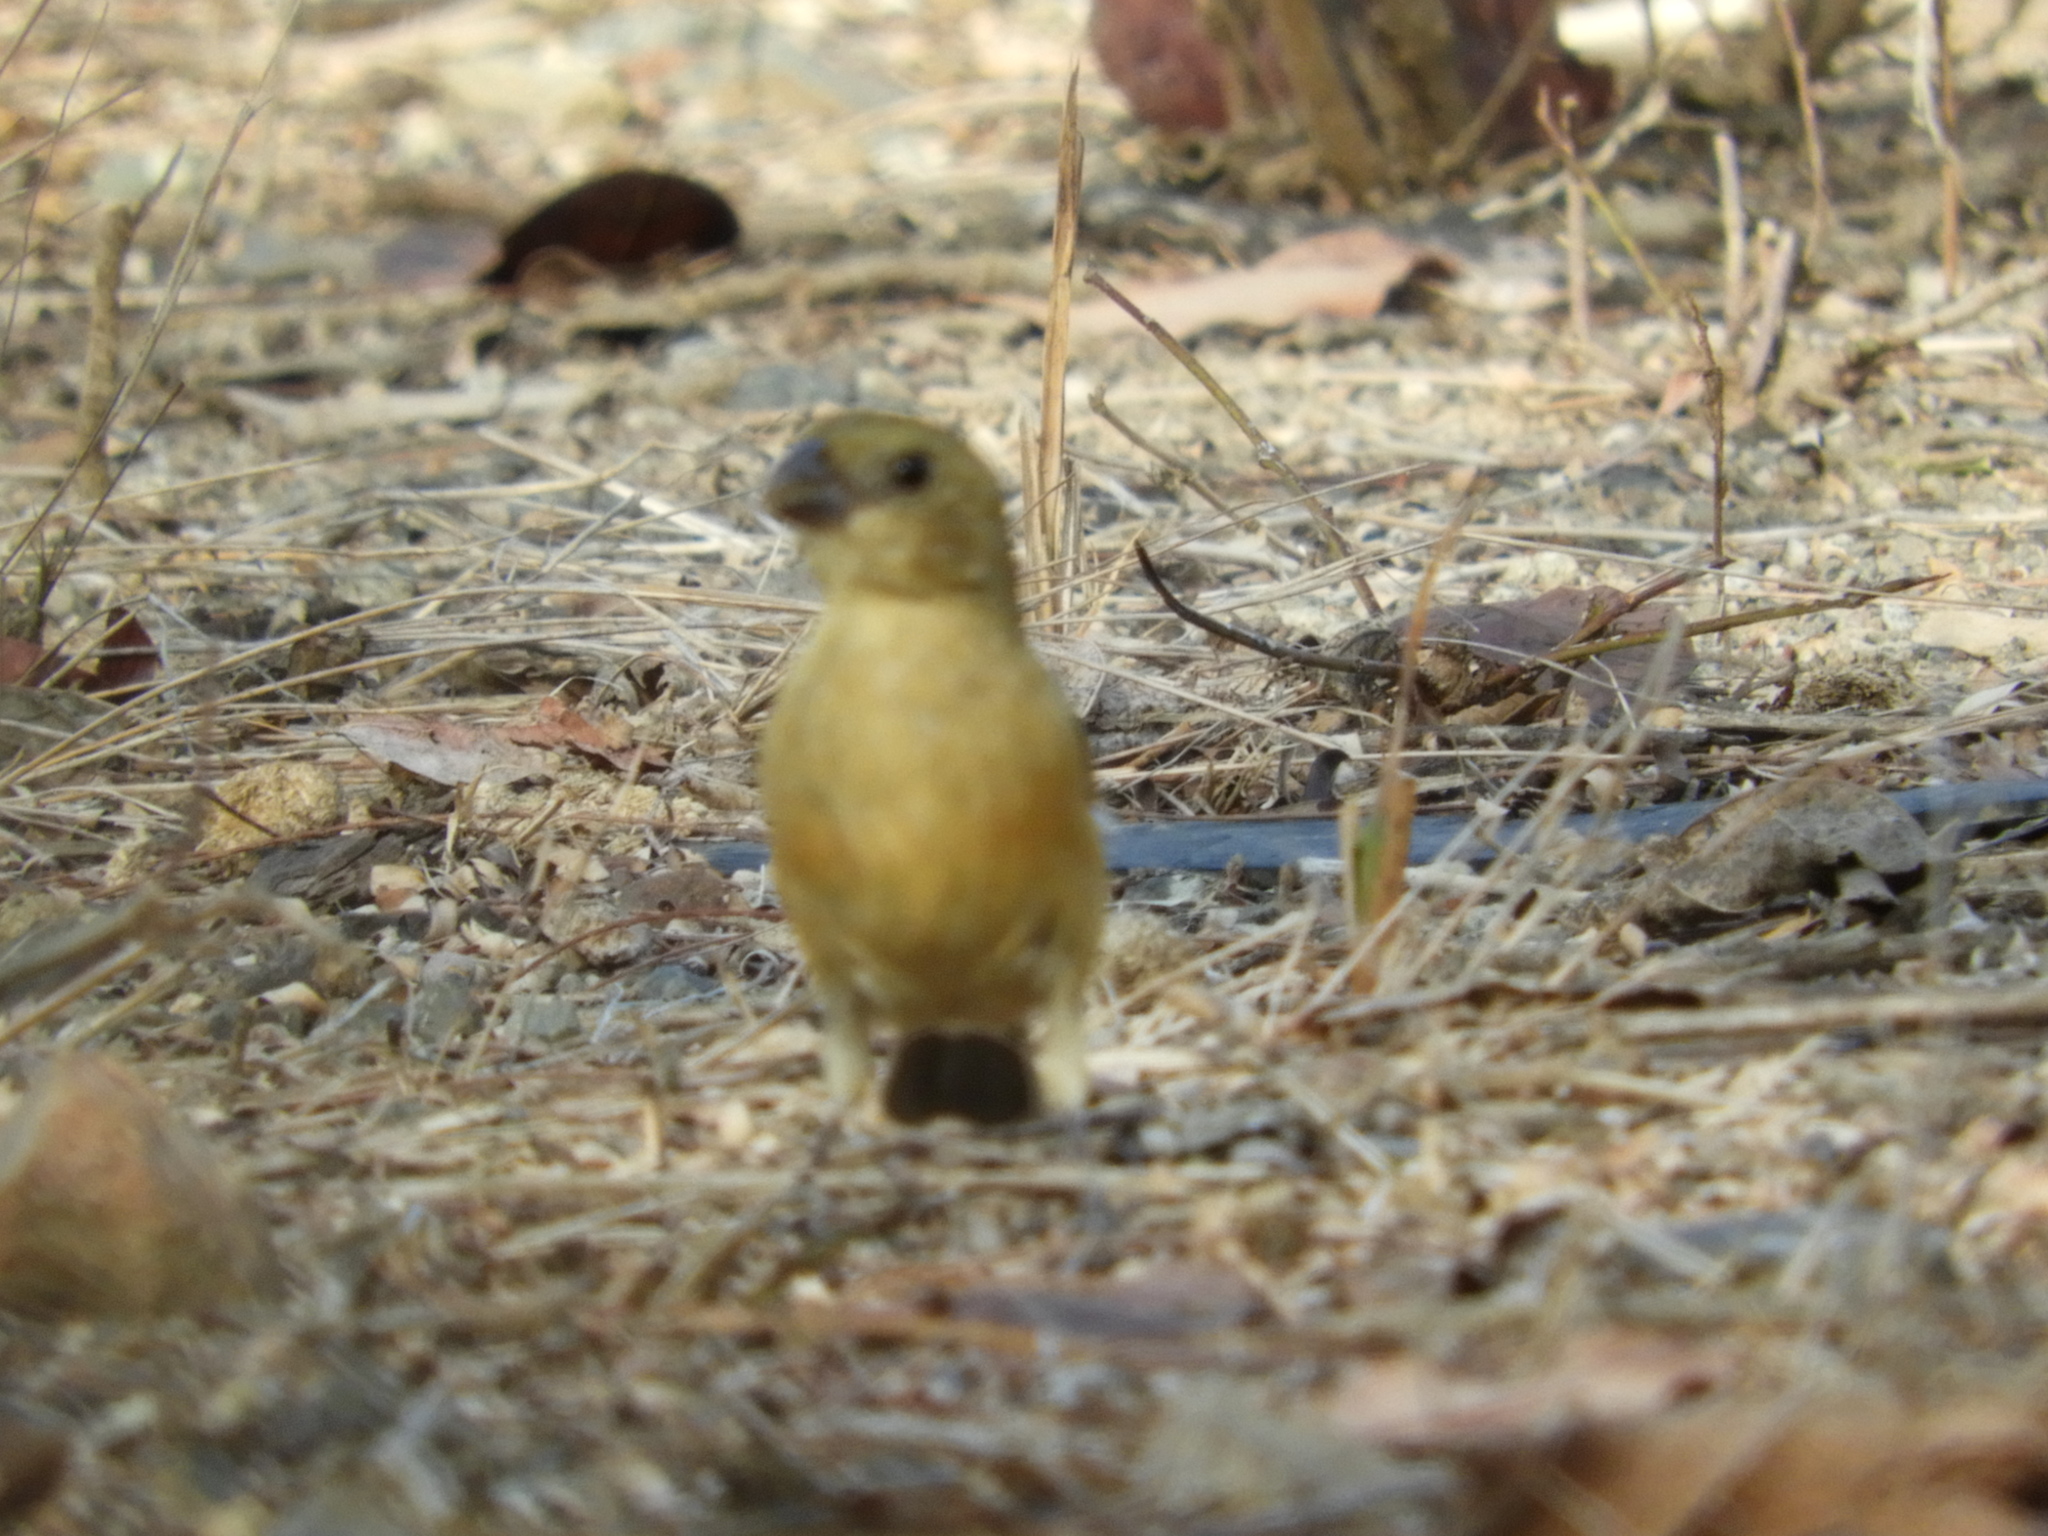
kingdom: Animalia
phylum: Chordata
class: Aves
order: Passeriformes
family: Thraupidae
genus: Sporophila
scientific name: Sporophila torqueola
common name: White-collared seedeater
